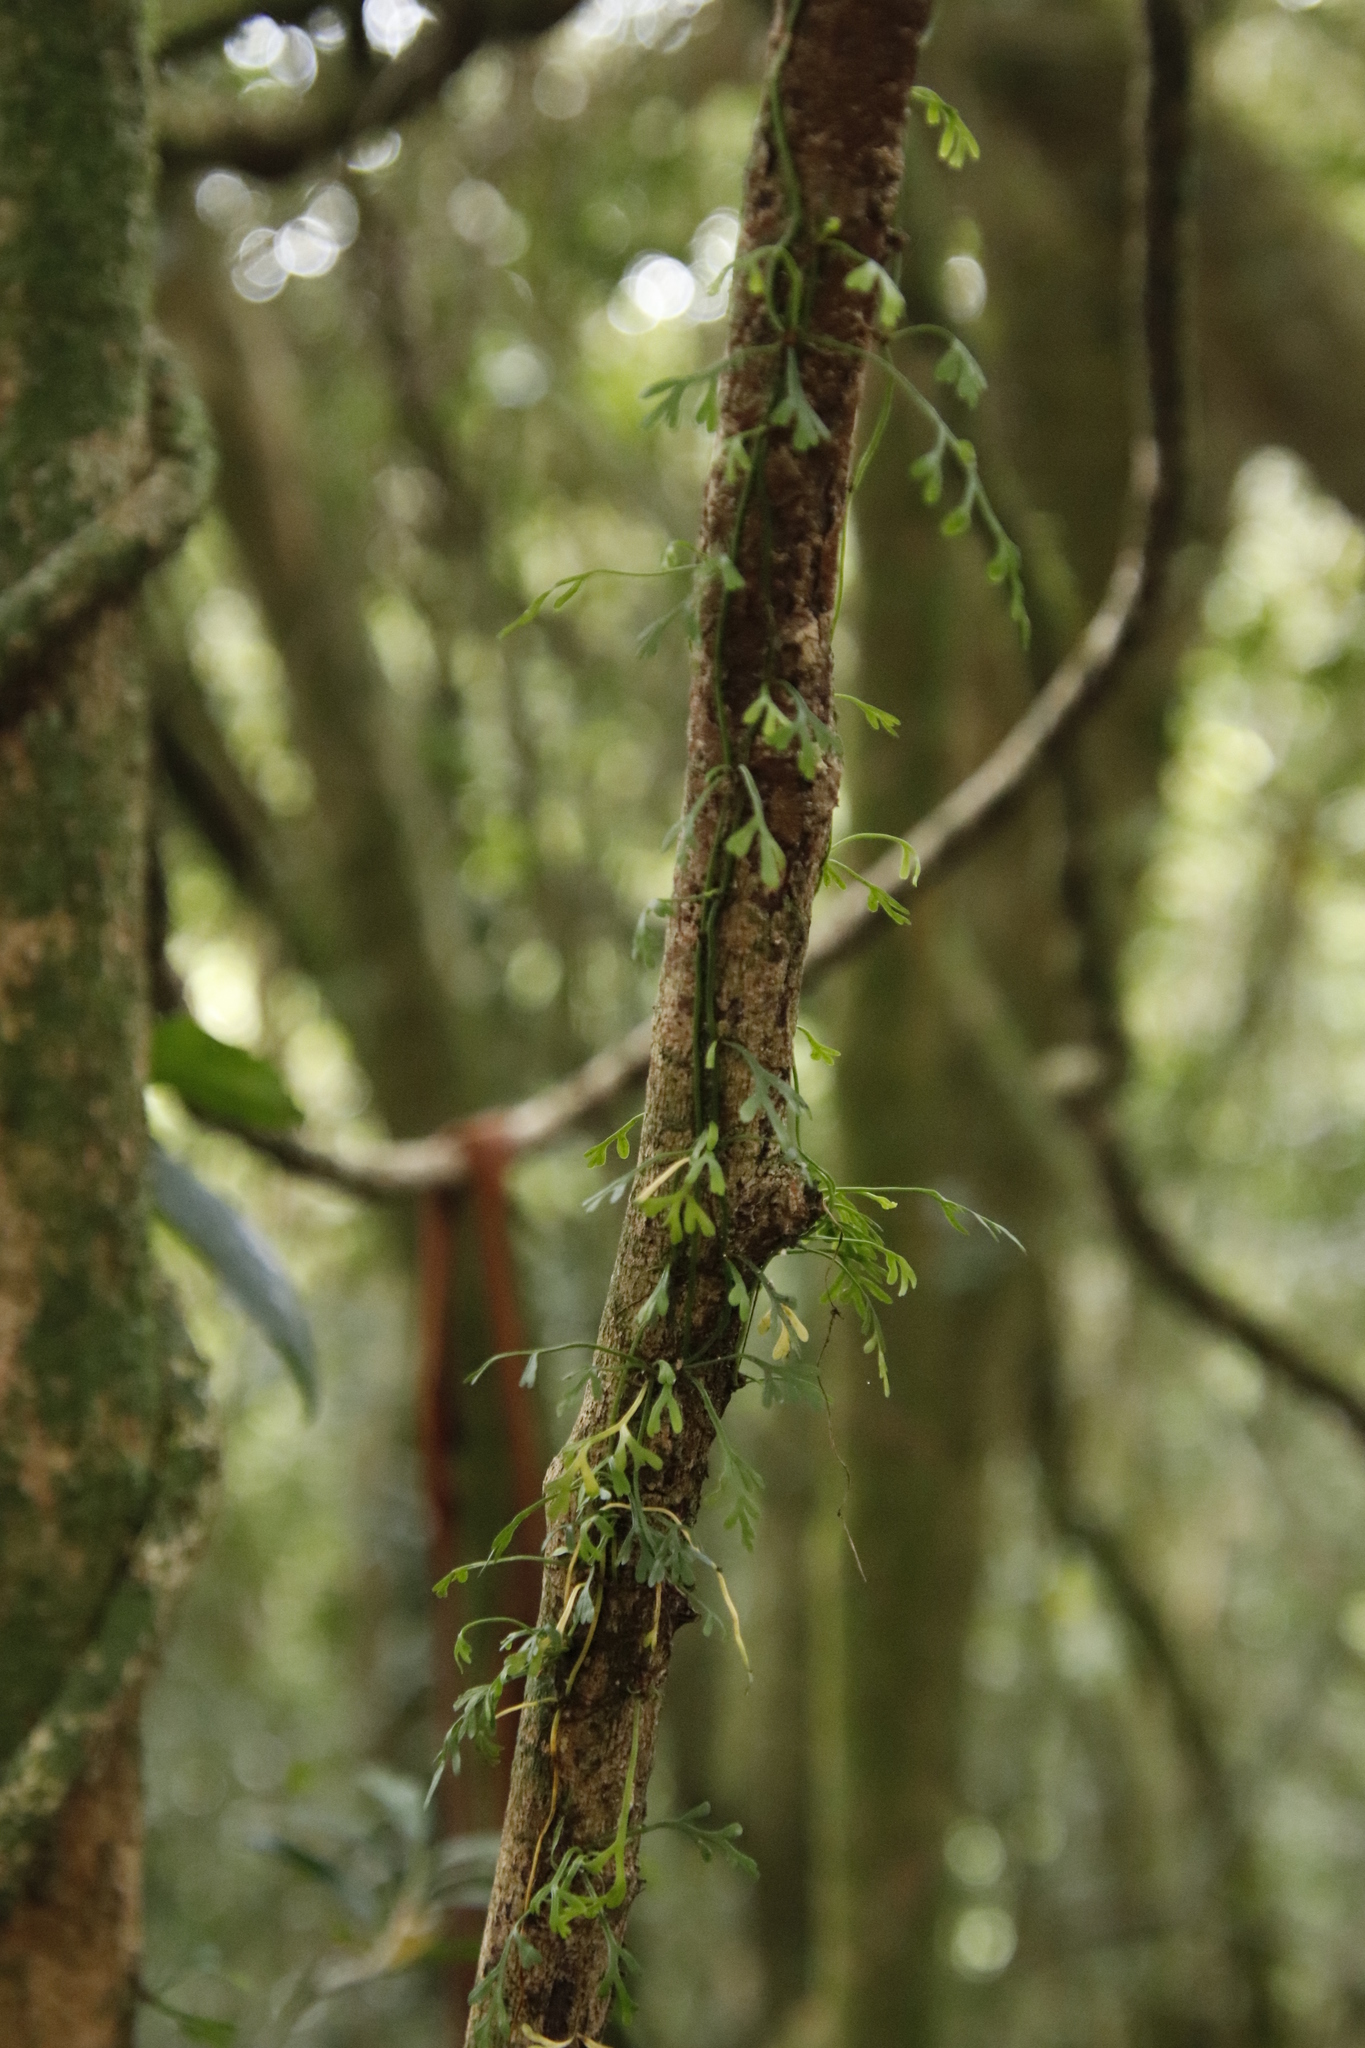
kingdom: Plantae
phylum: Tracheophyta
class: Polypodiopsida
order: Polypodiales
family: Aspleniaceae
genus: Asplenium
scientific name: Asplenium mannii
